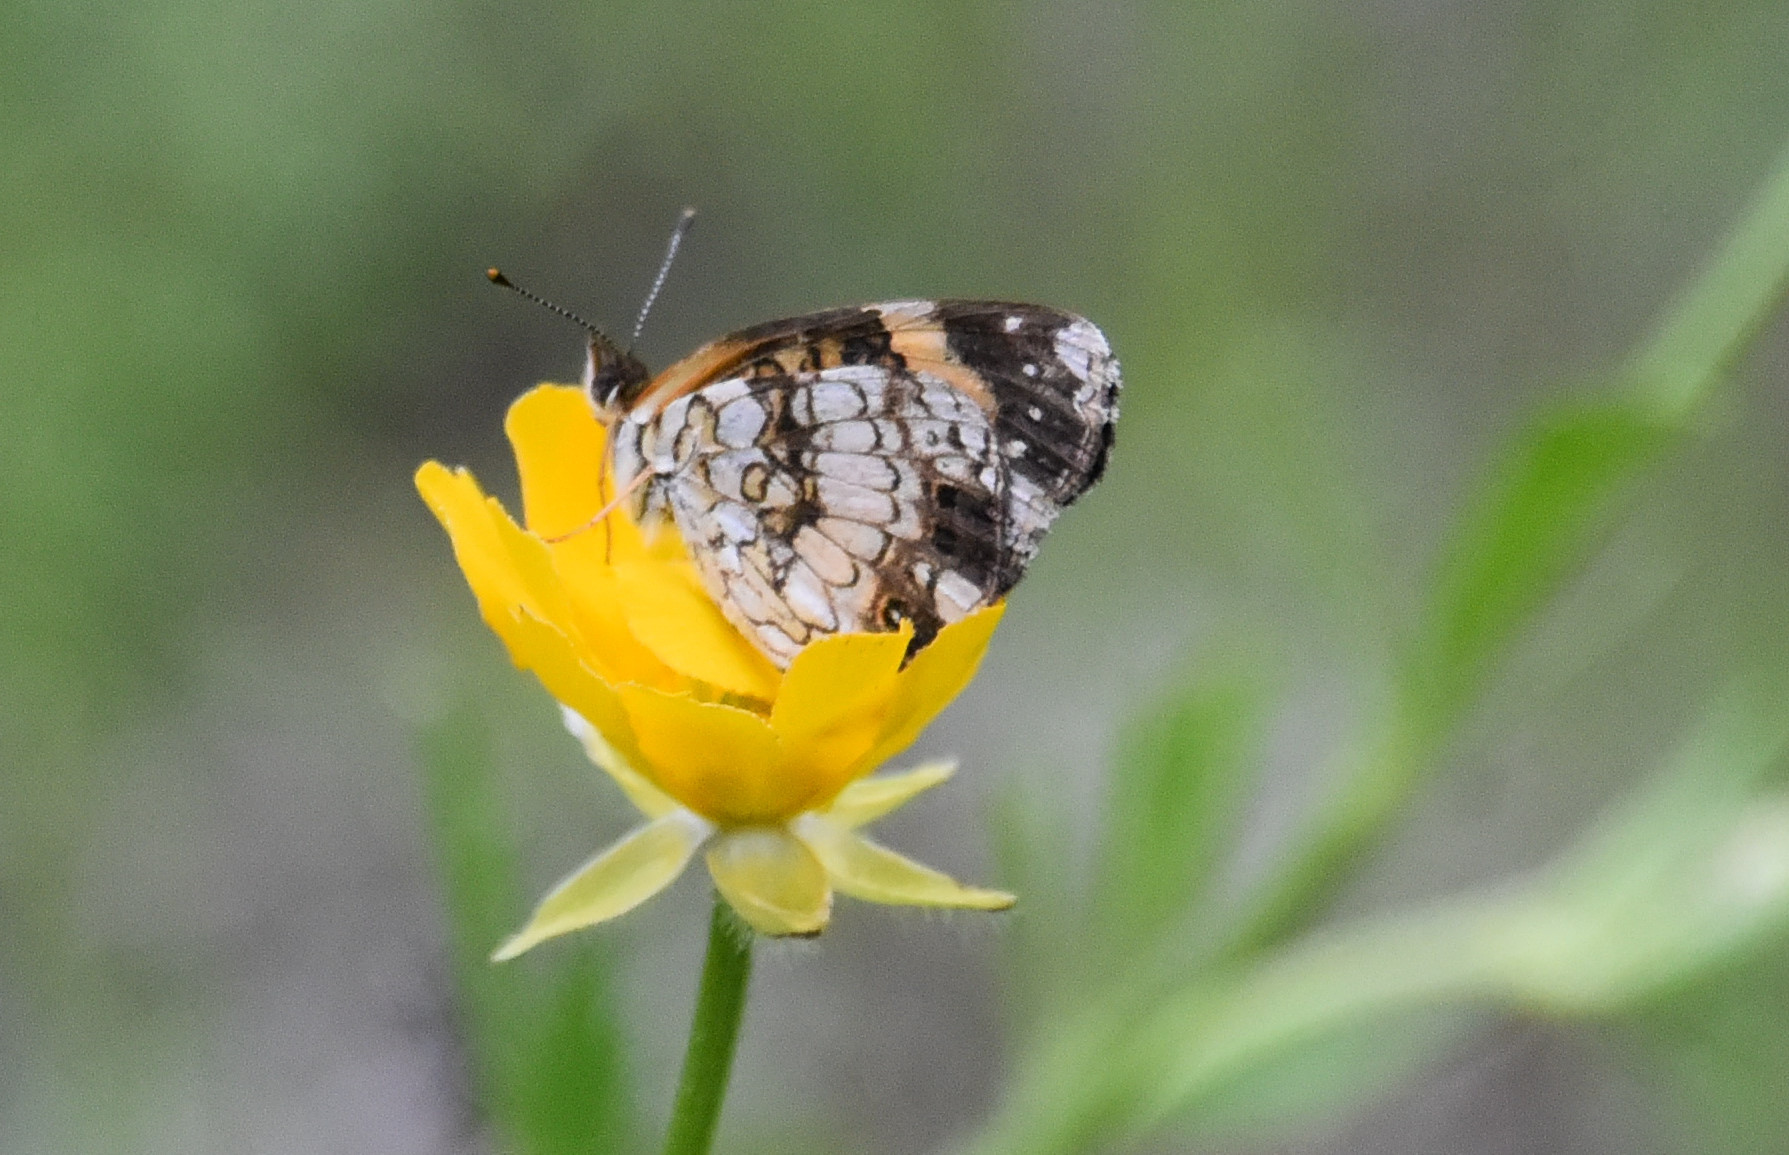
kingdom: Animalia
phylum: Arthropoda
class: Insecta
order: Lepidoptera
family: Nymphalidae
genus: Chlosyne
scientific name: Chlosyne nycteis
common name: Silvery checkerspot
